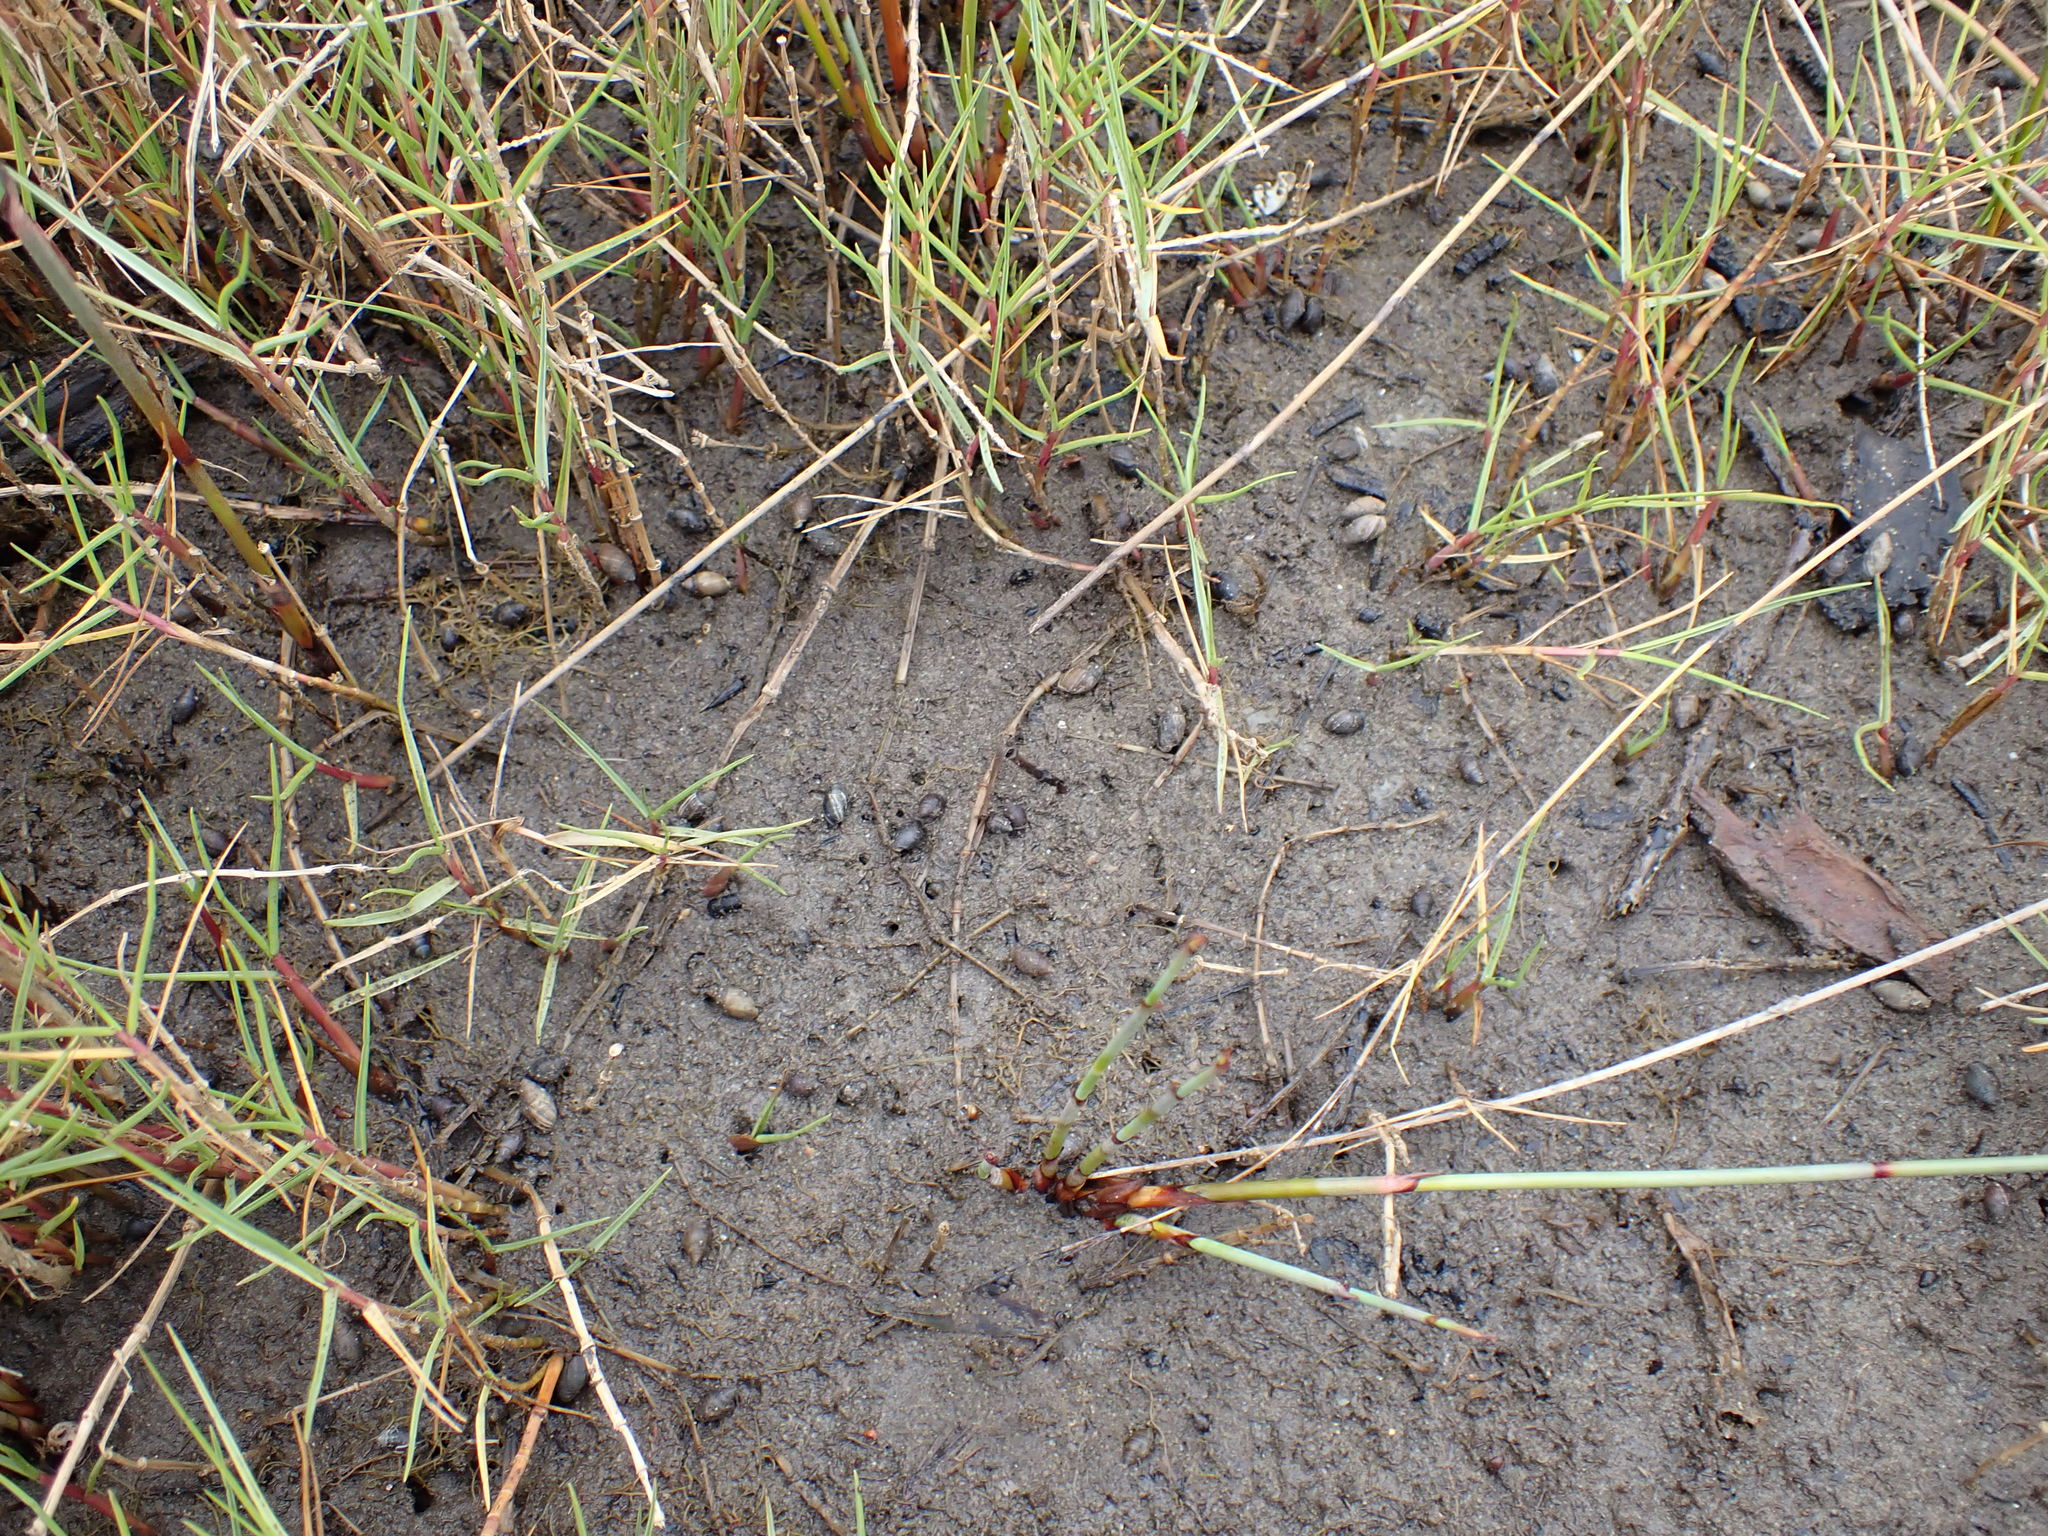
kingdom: Animalia
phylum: Mollusca
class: Gastropoda
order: Ellobiida
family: Ellobiidae
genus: Pleuroloba
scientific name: Pleuroloba costellaris
